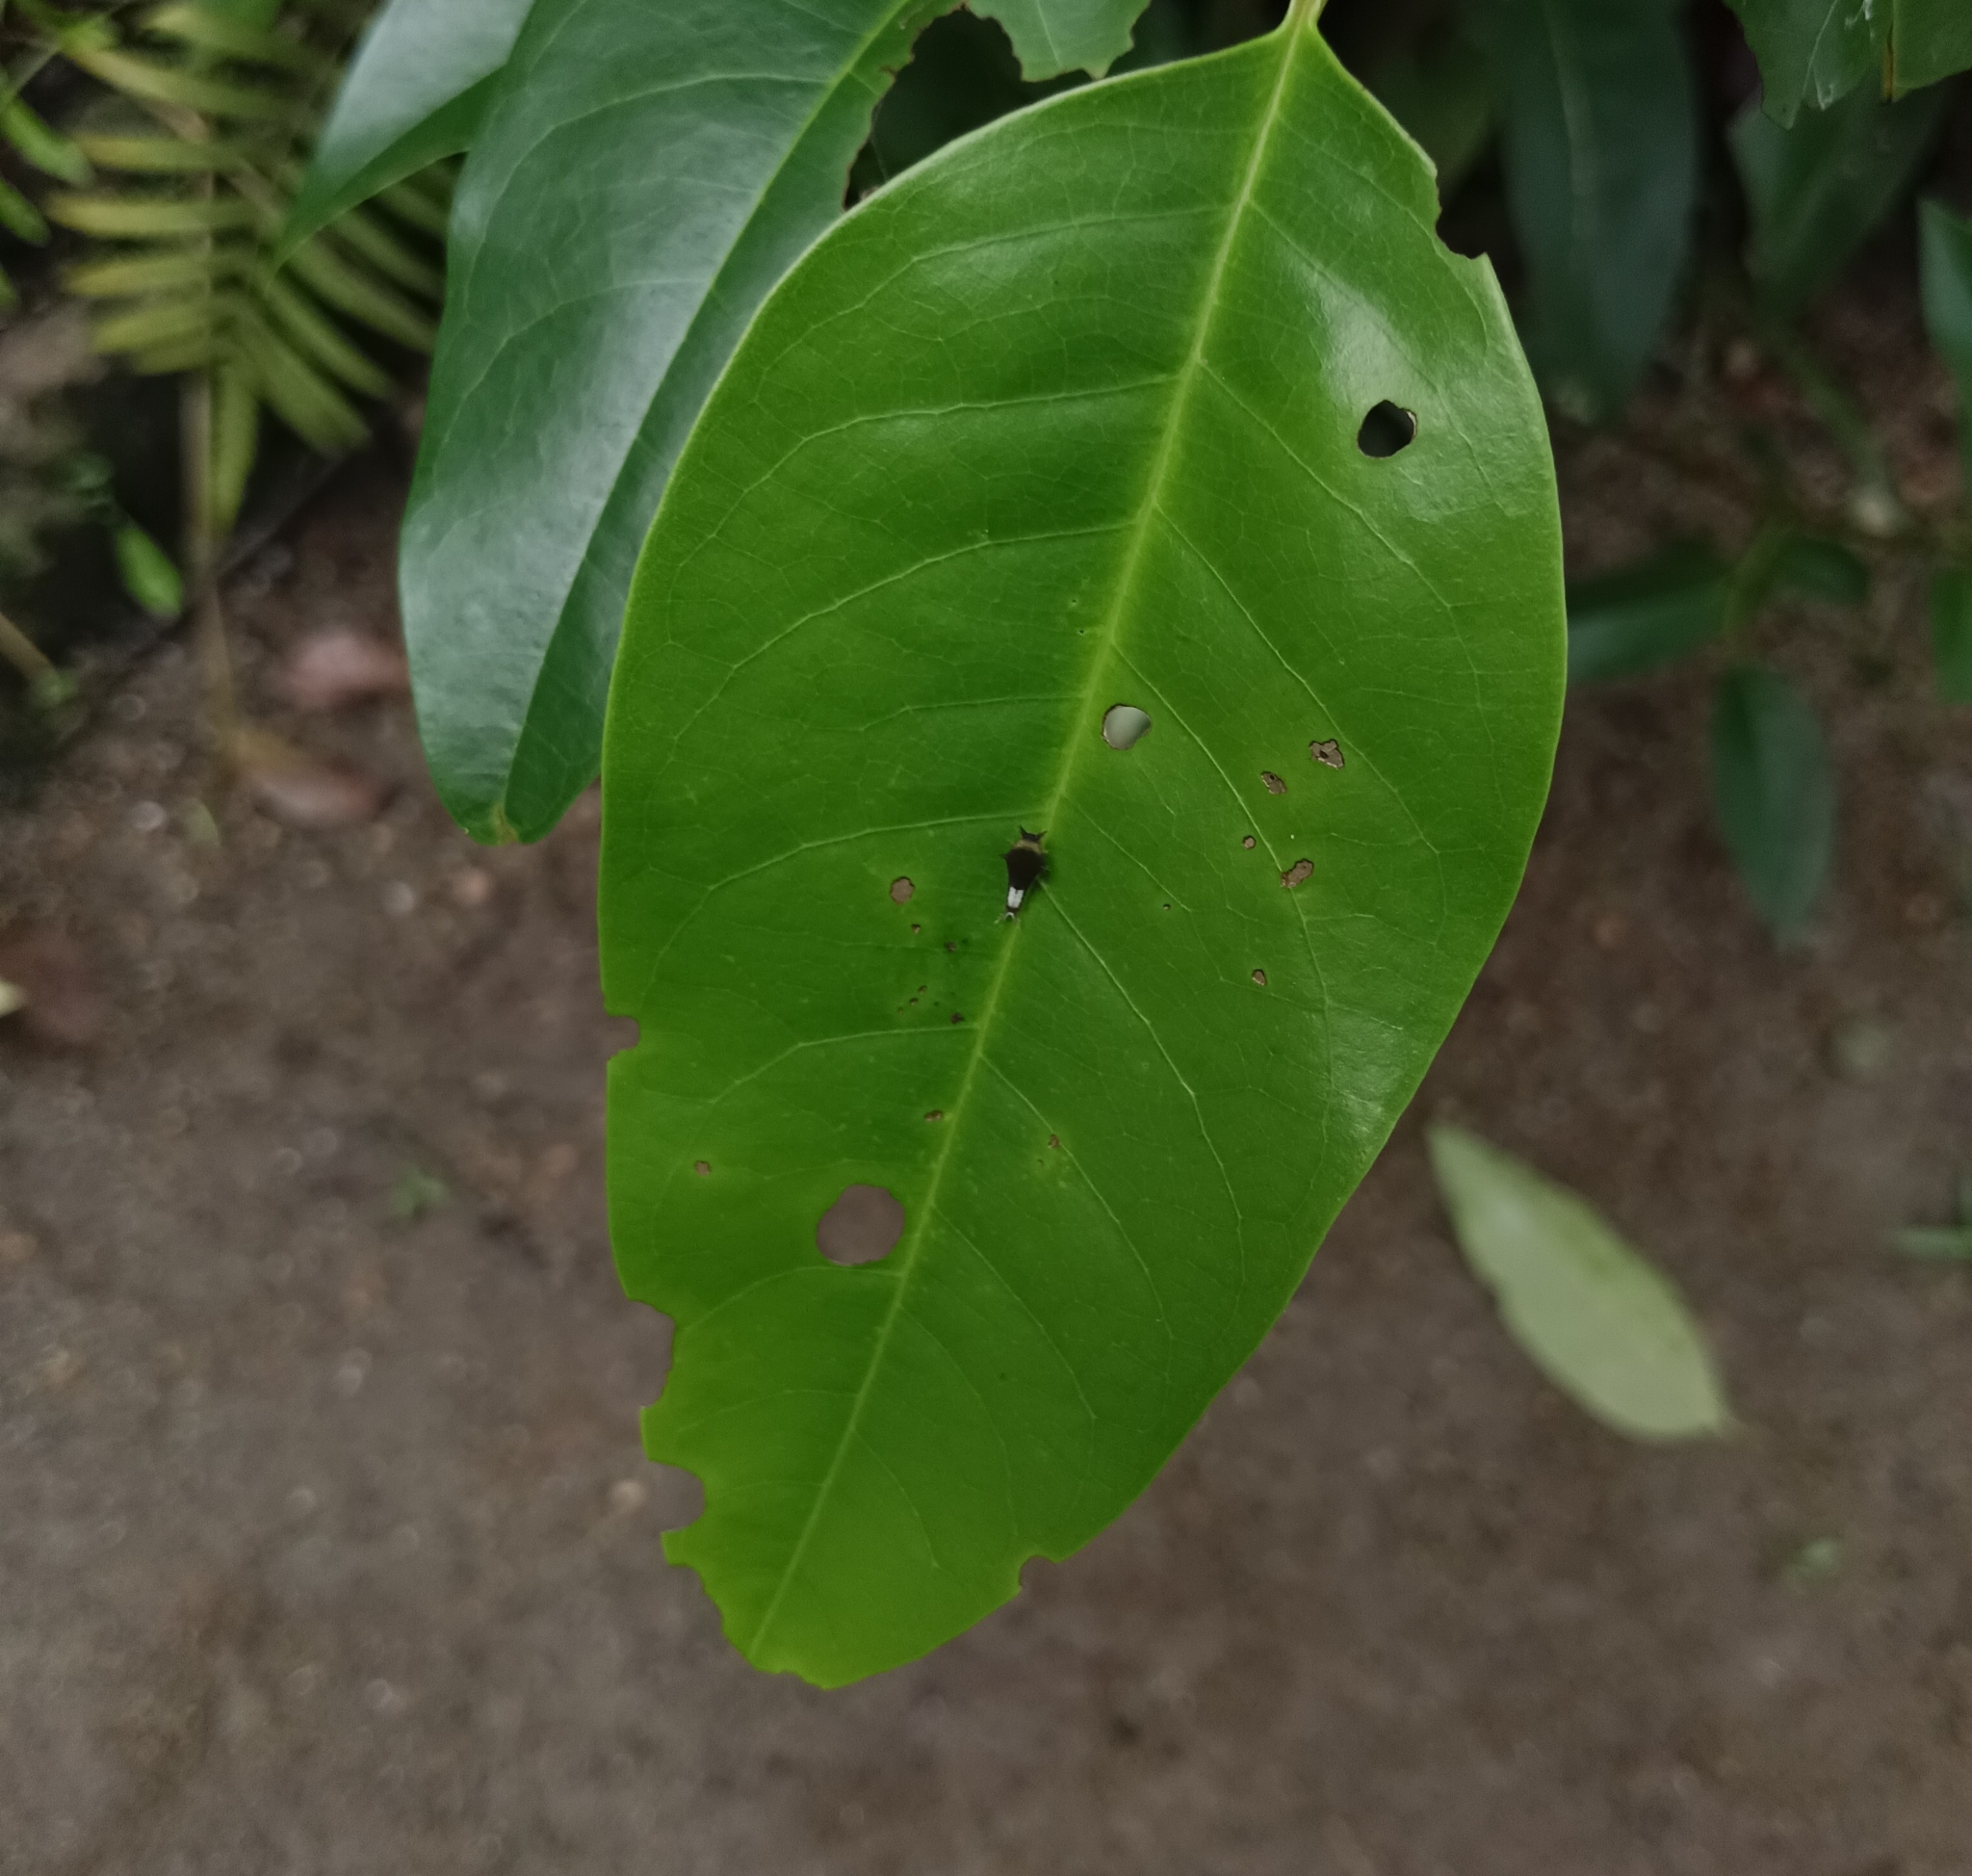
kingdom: Animalia
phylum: Arthropoda
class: Insecta
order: Lepidoptera
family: Papilionidae
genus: Graphium
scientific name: Graphium agamemnon
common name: Tailed jay
